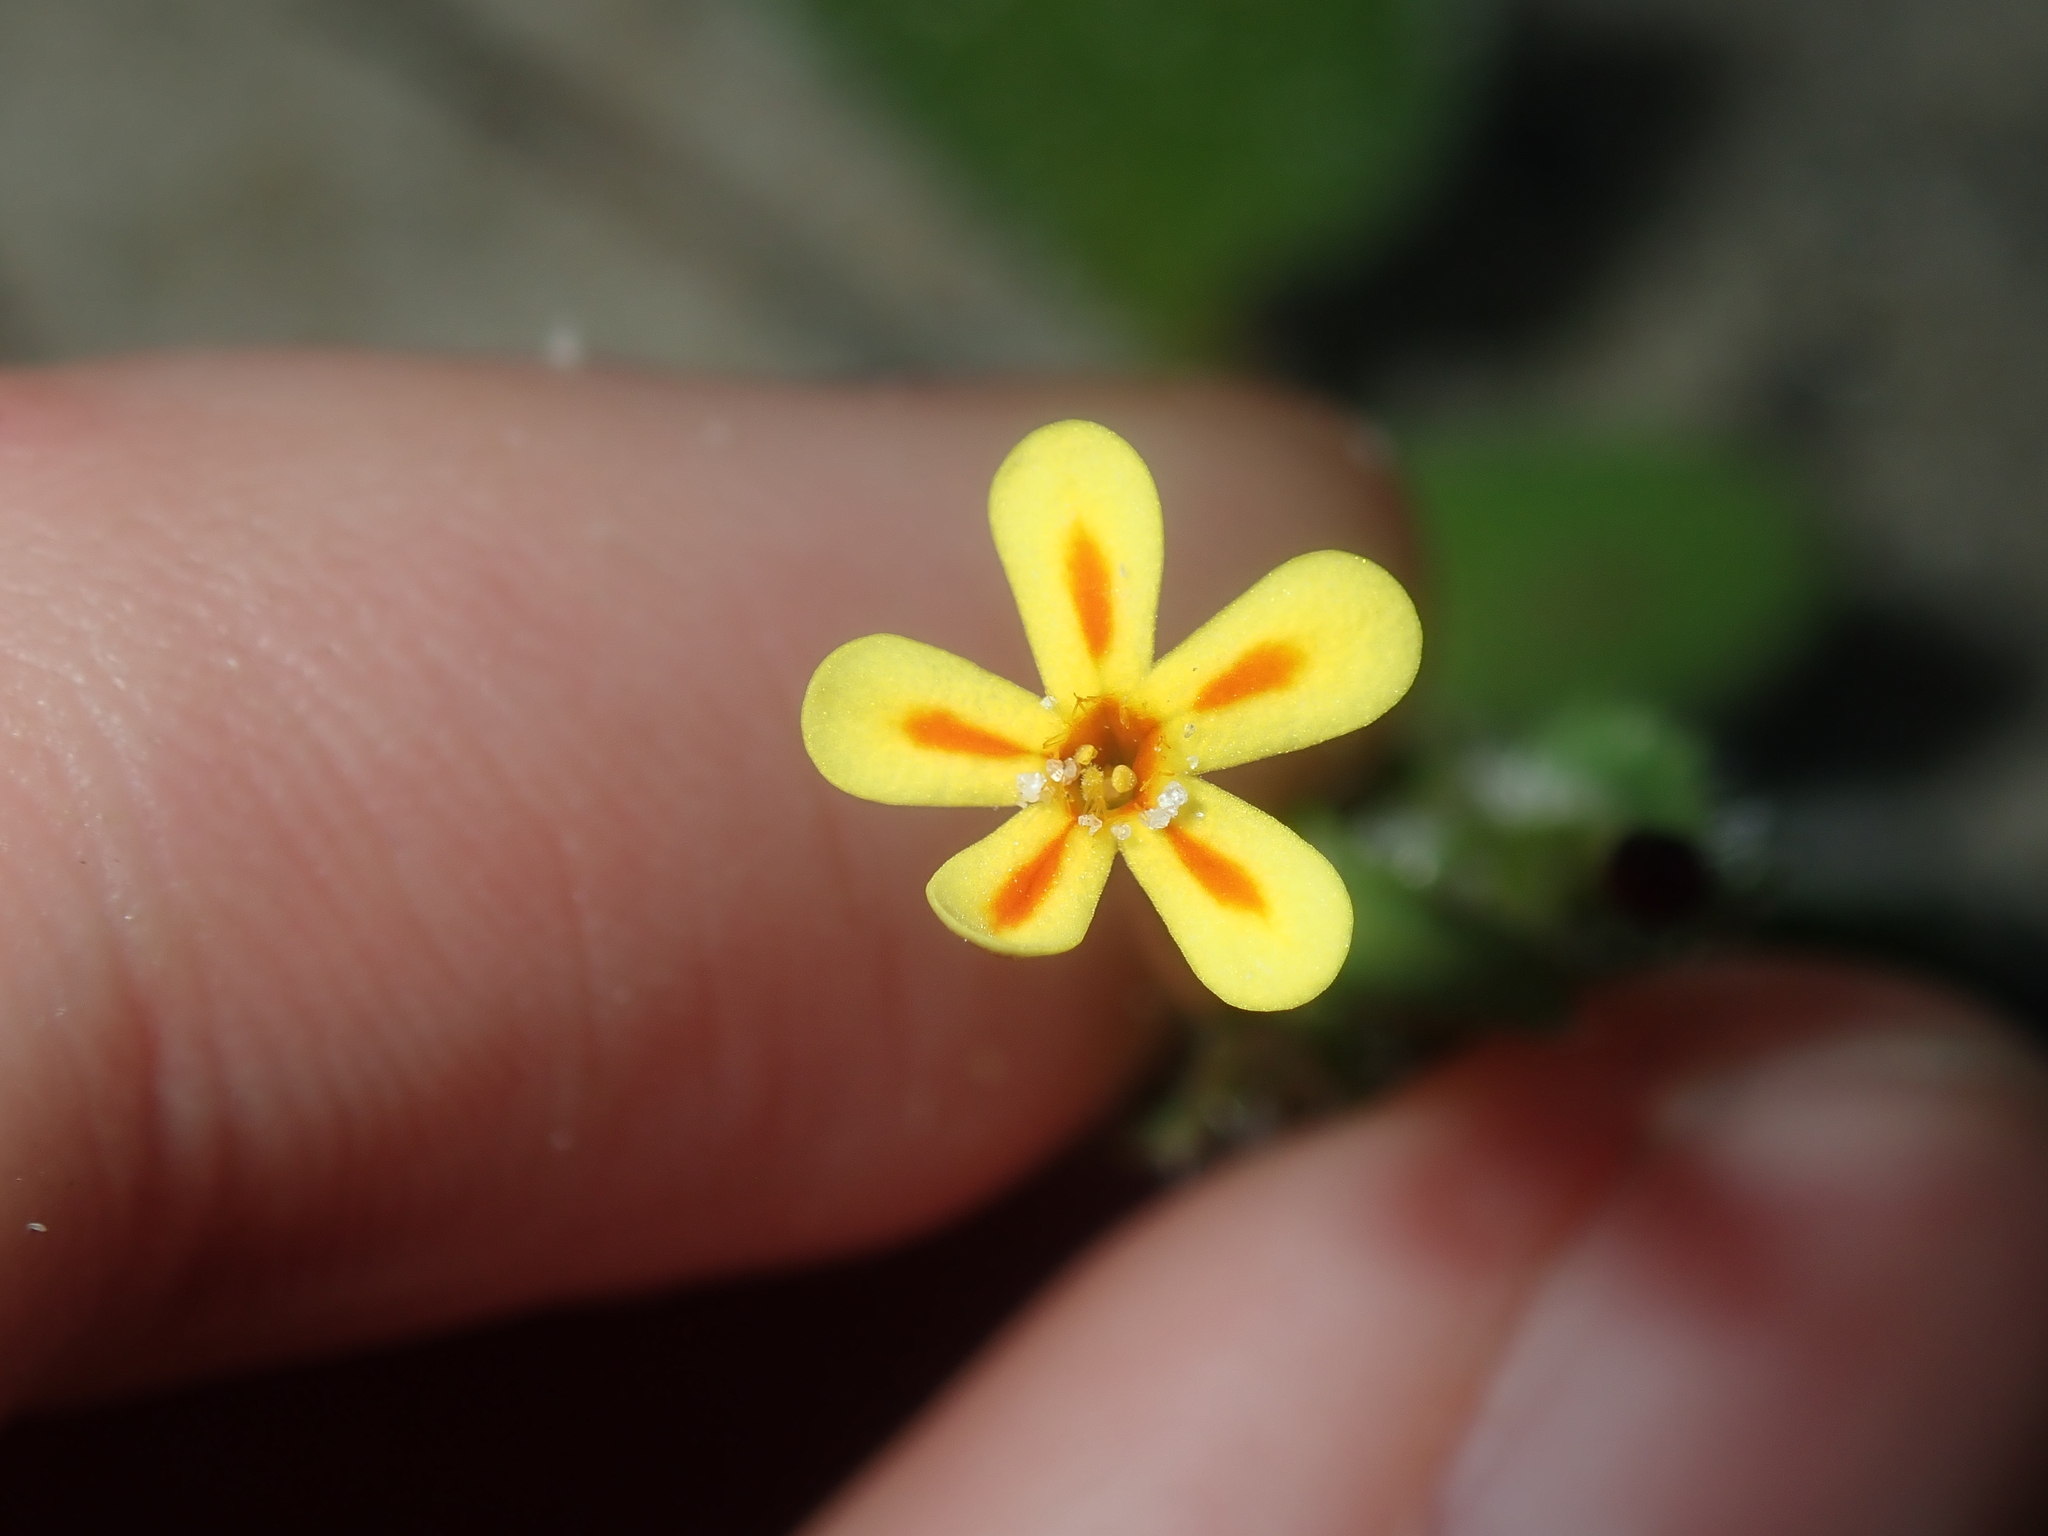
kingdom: Plantae
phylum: Tracheophyta
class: Magnoliopsida
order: Lamiales
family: Scrophulariaceae
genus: Zaluzianskya
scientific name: Zaluzianskya divaricata
